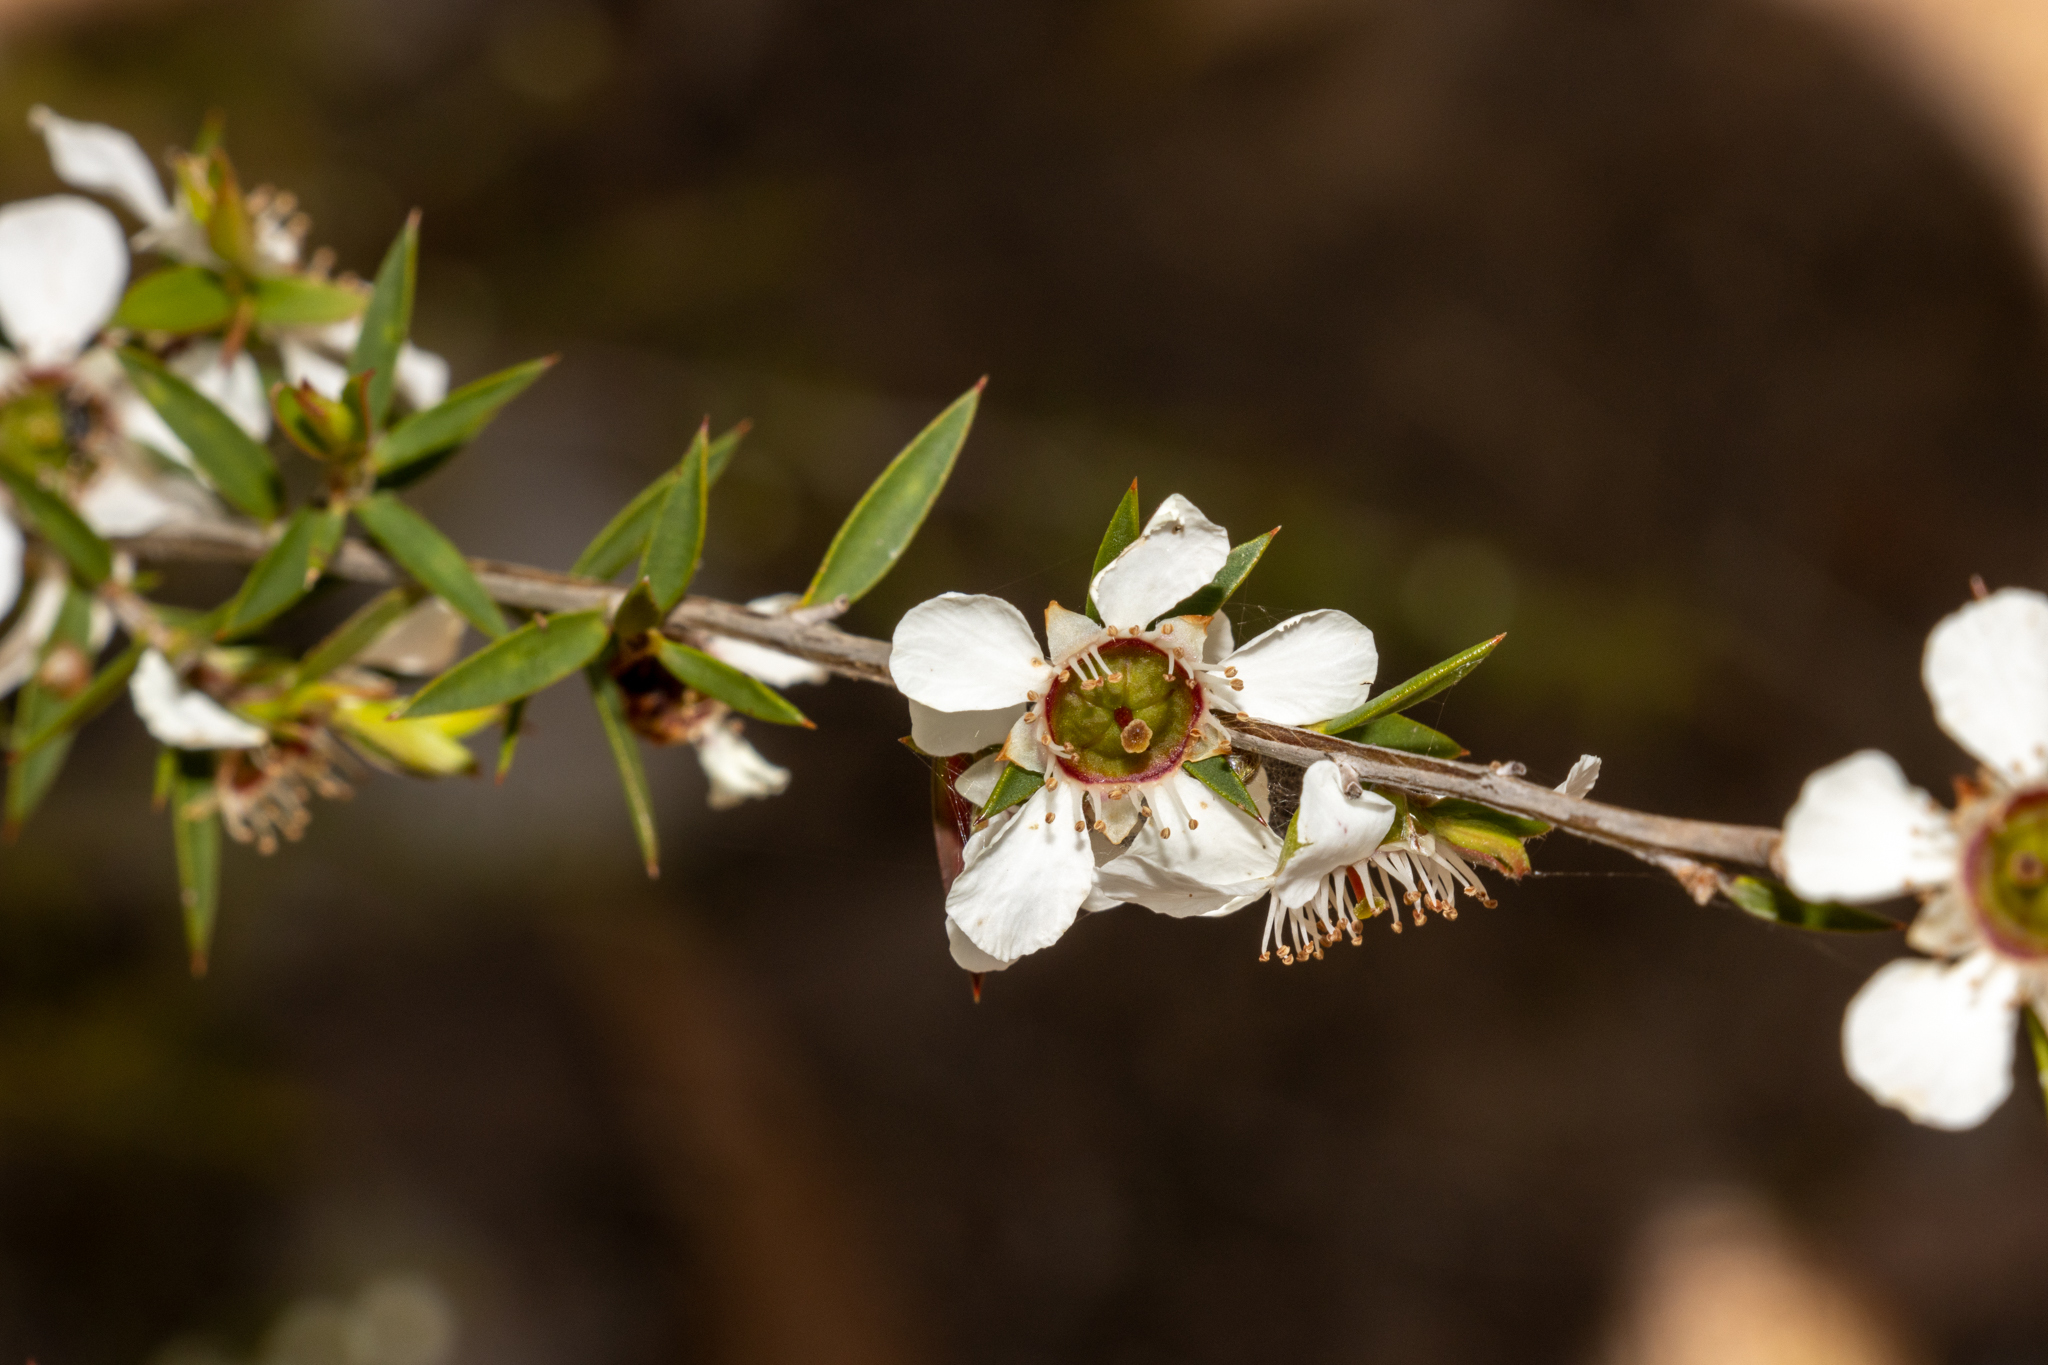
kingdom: Plantae
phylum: Tracheophyta
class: Magnoliopsida
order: Myrtales
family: Myrtaceae
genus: Leptospermum
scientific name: Leptospermum continentale
